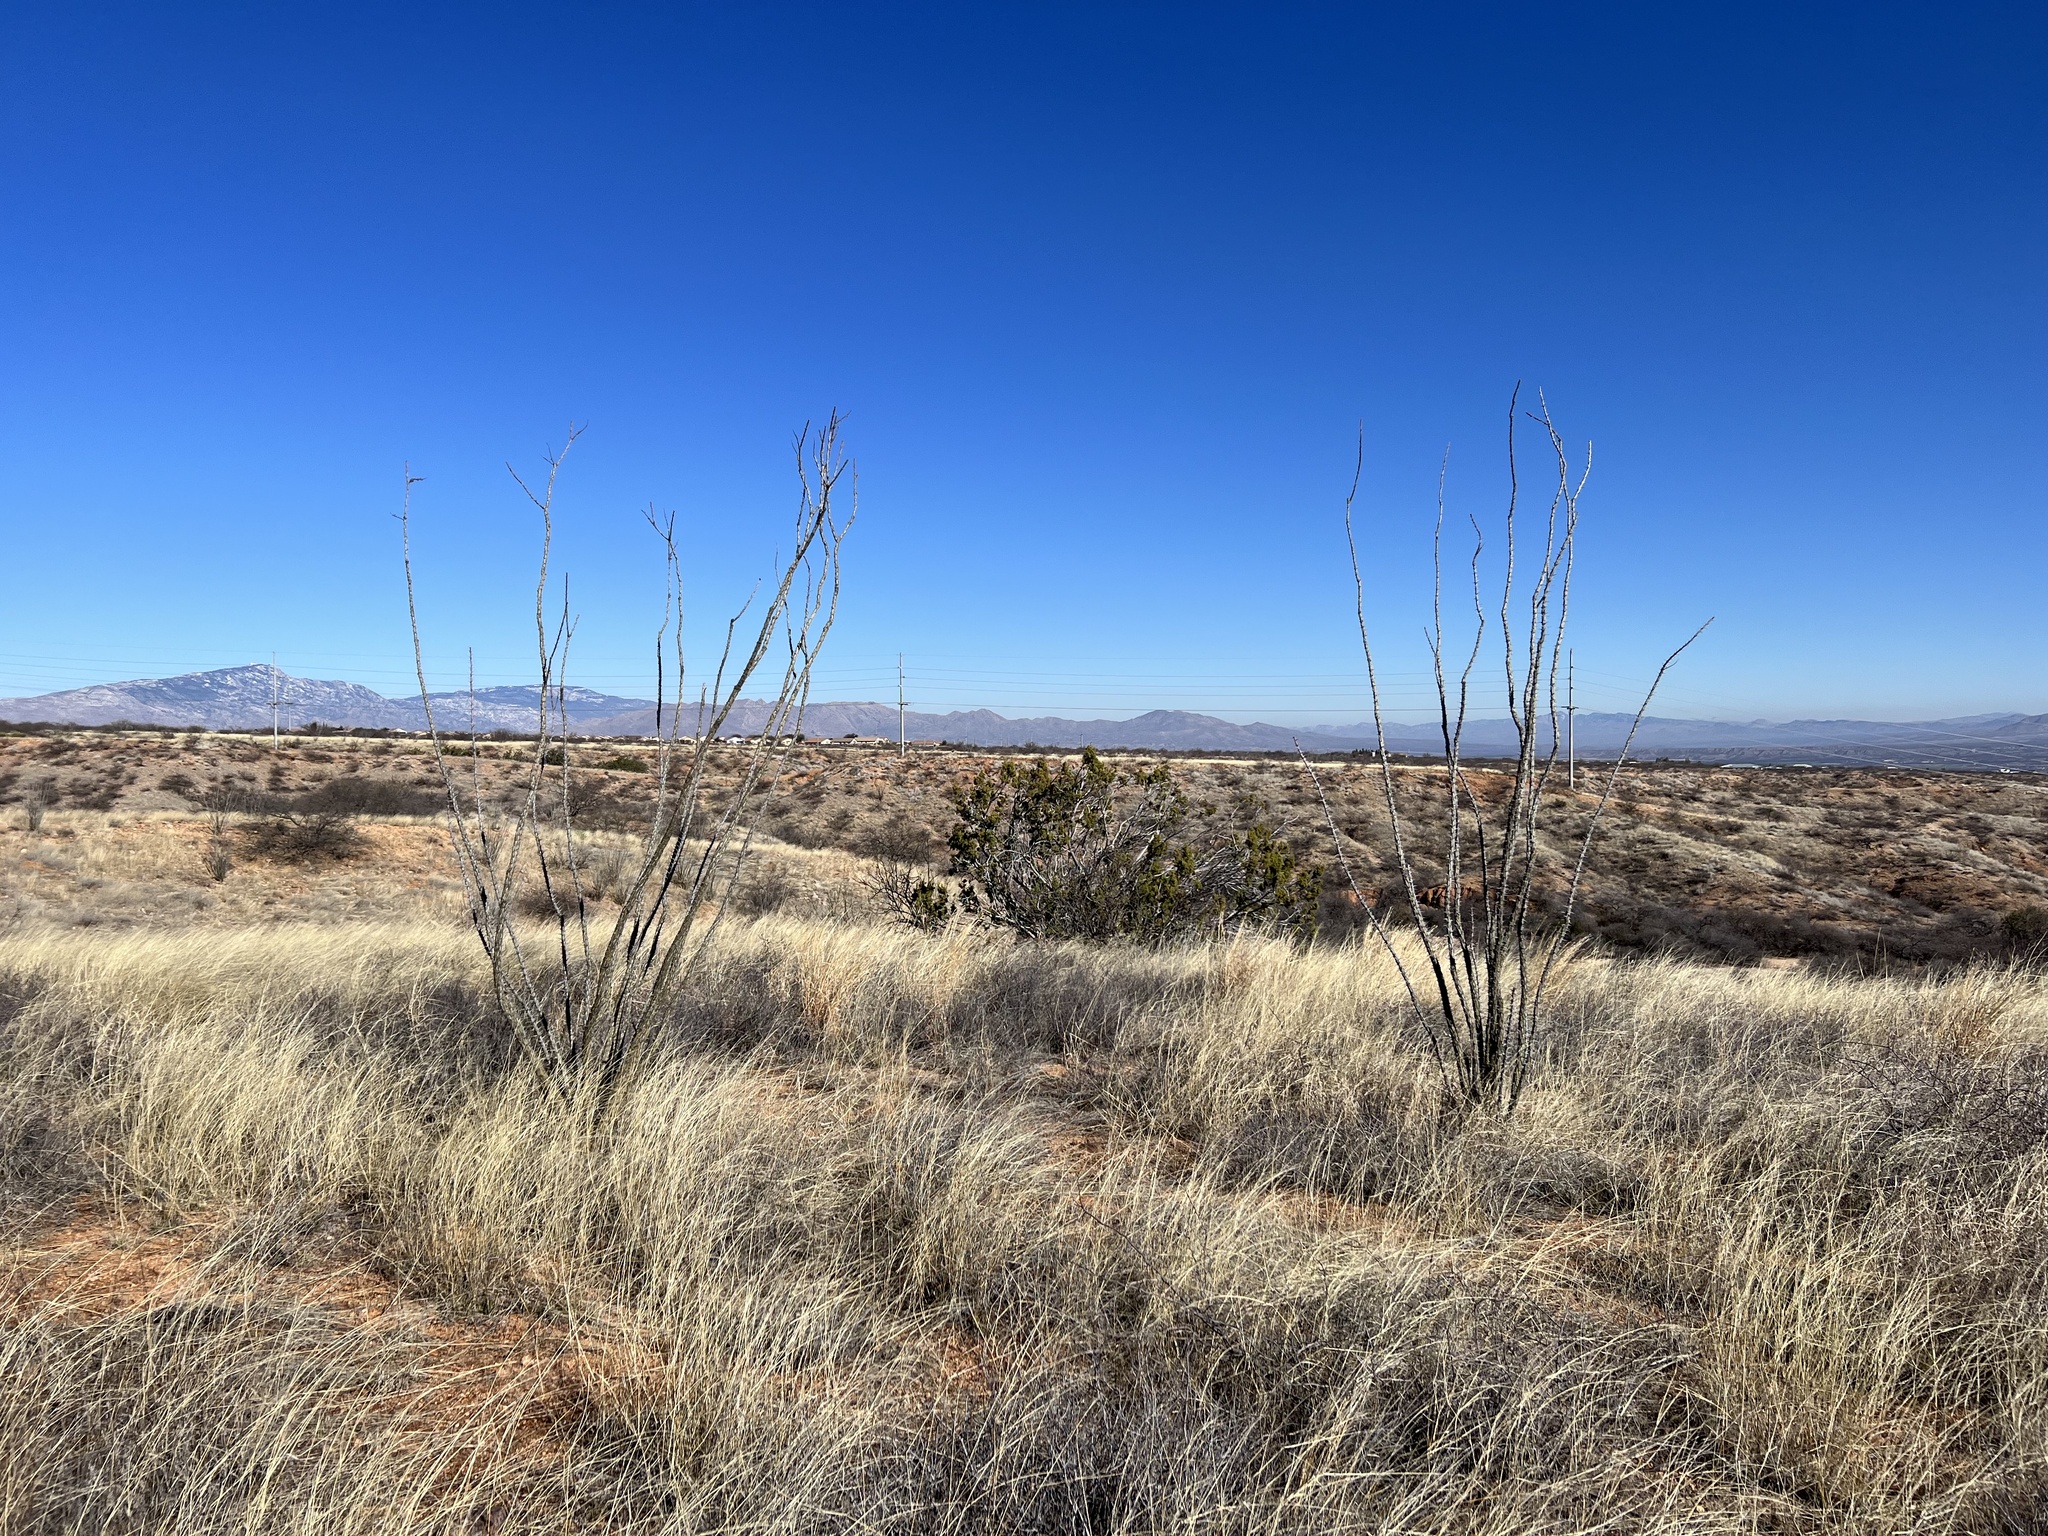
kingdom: Plantae
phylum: Tracheophyta
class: Magnoliopsida
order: Ericales
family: Fouquieriaceae
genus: Fouquieria
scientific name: Fouquieria splendens
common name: Vine-cactus
